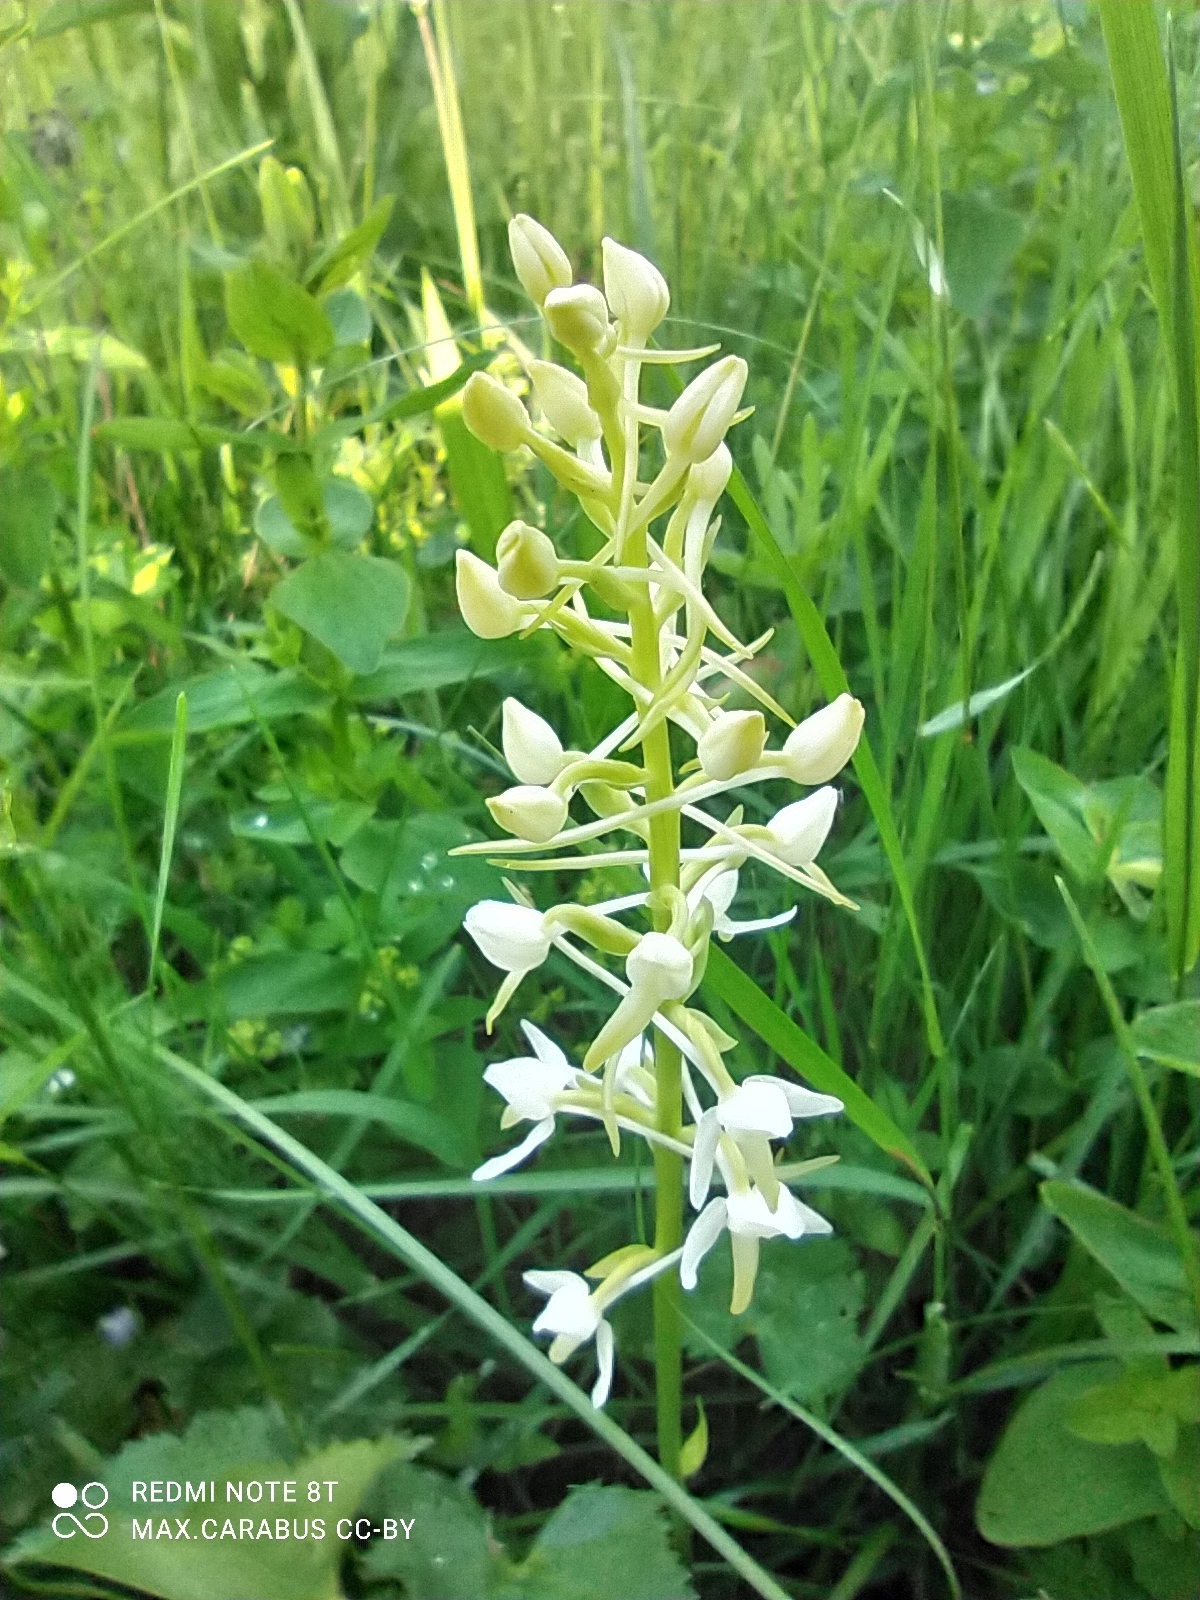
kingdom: Plantae
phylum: Tracheophyta
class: Liliopsida
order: Asparagales
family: Orchidaceae
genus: Platanthera
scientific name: Platanthera bifolia
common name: Lesser butterfly-orchid
